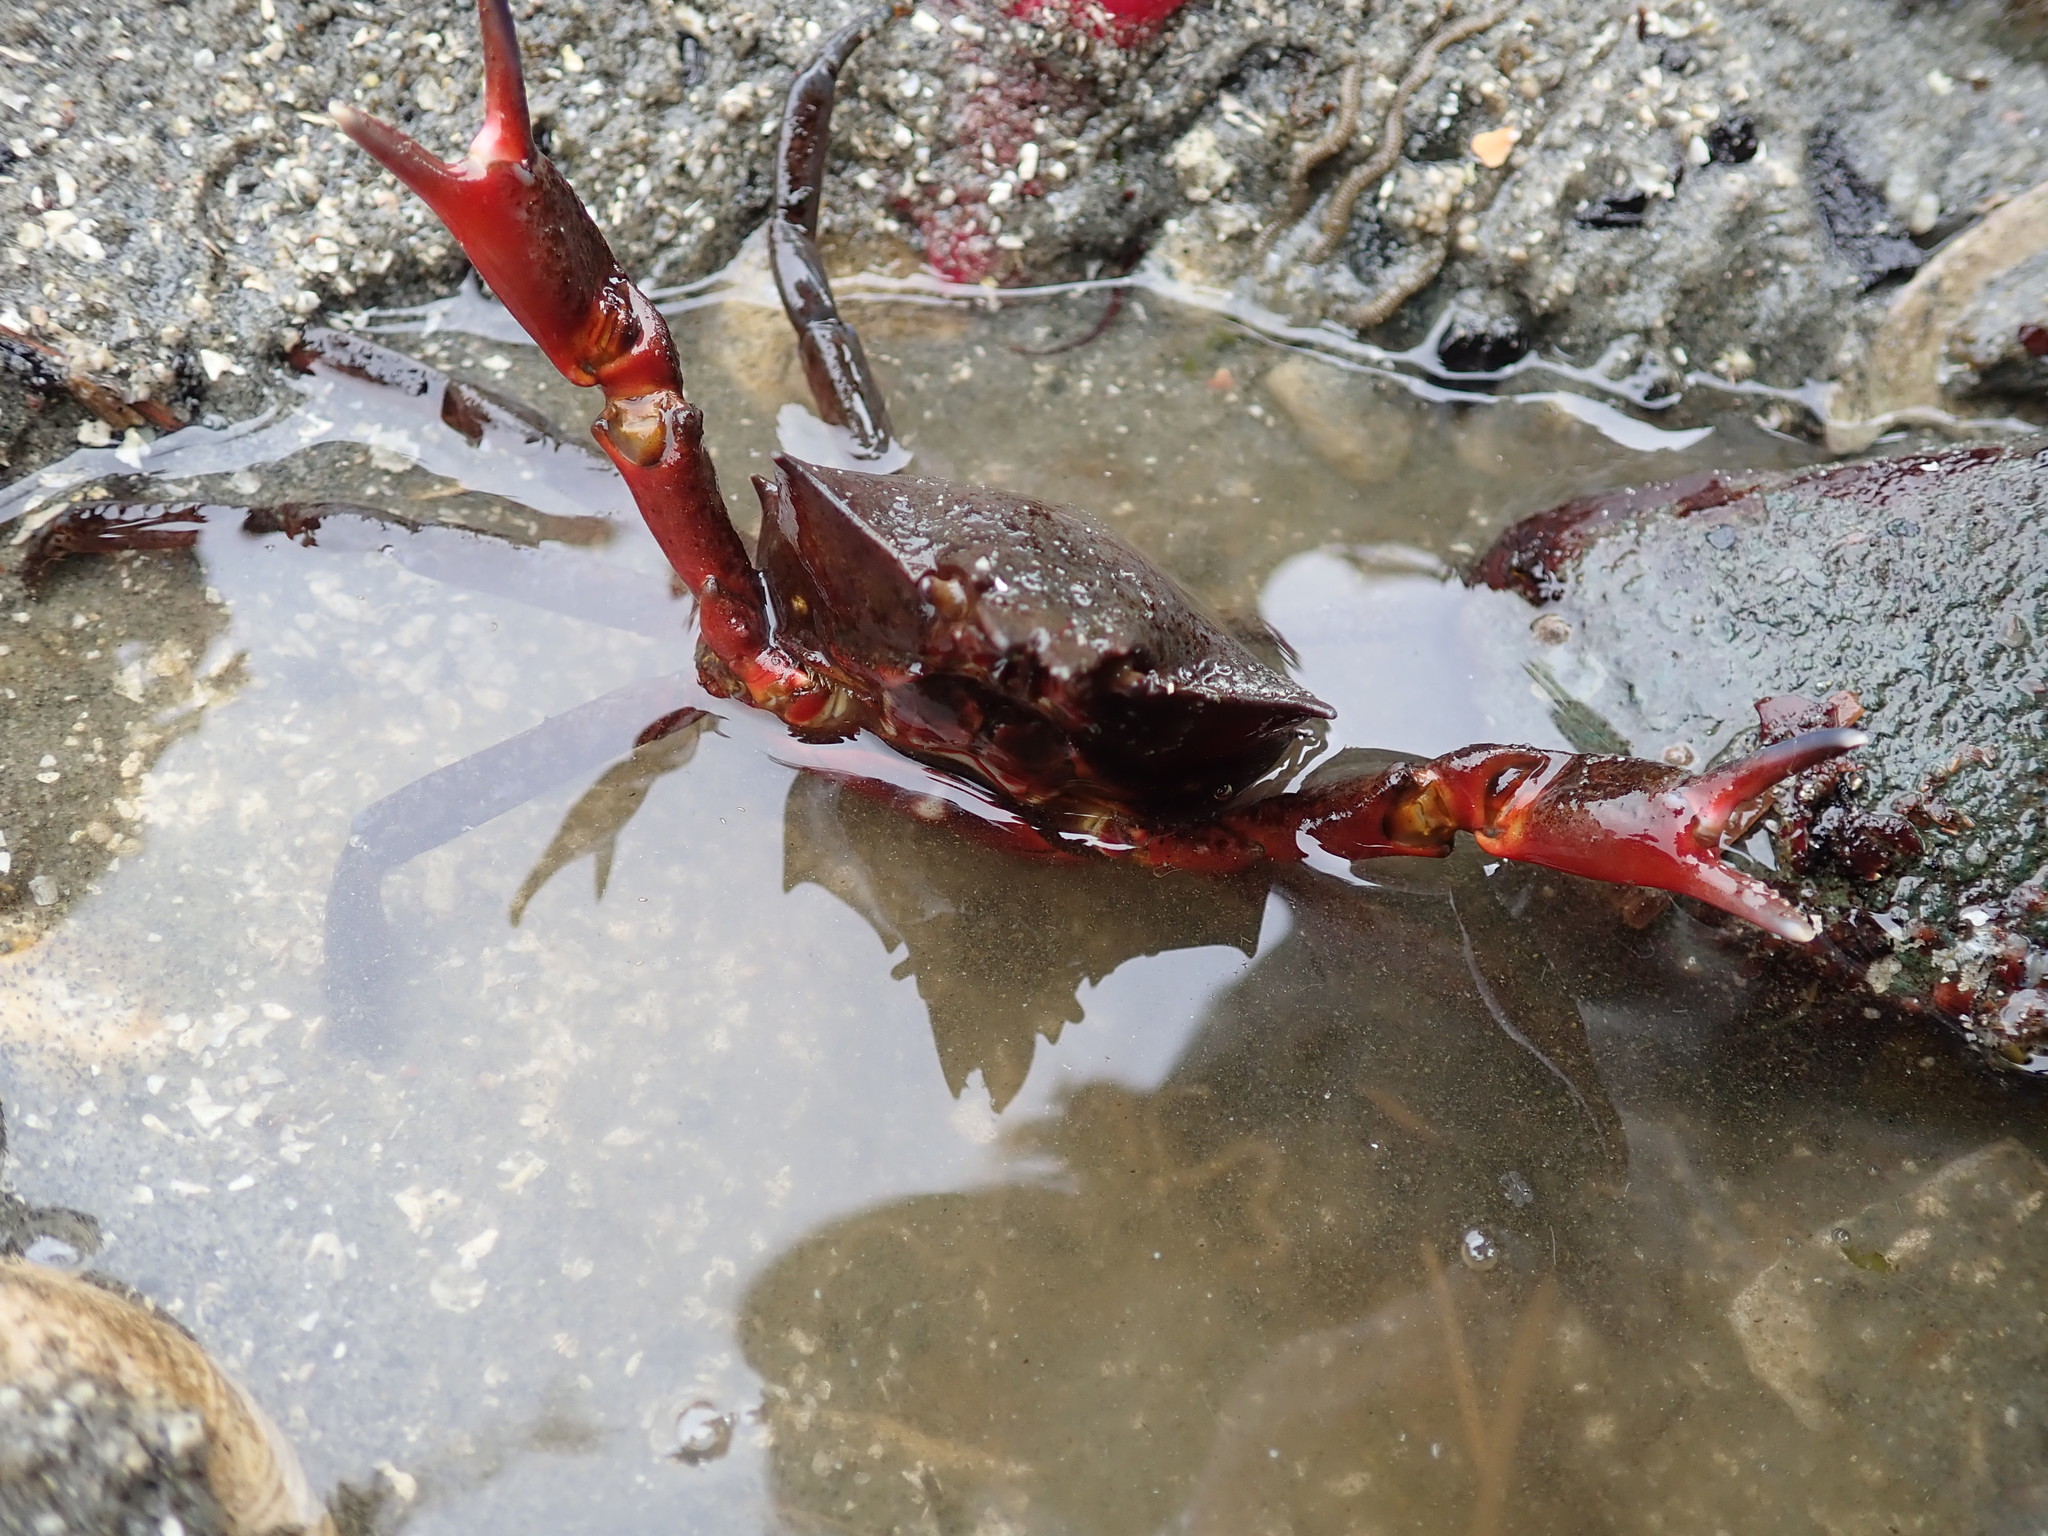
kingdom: Animalia
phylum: Arthropoda
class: Malacostraca
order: Decapoda
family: Epialtidae
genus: Pugettia
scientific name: Pugettia producta
